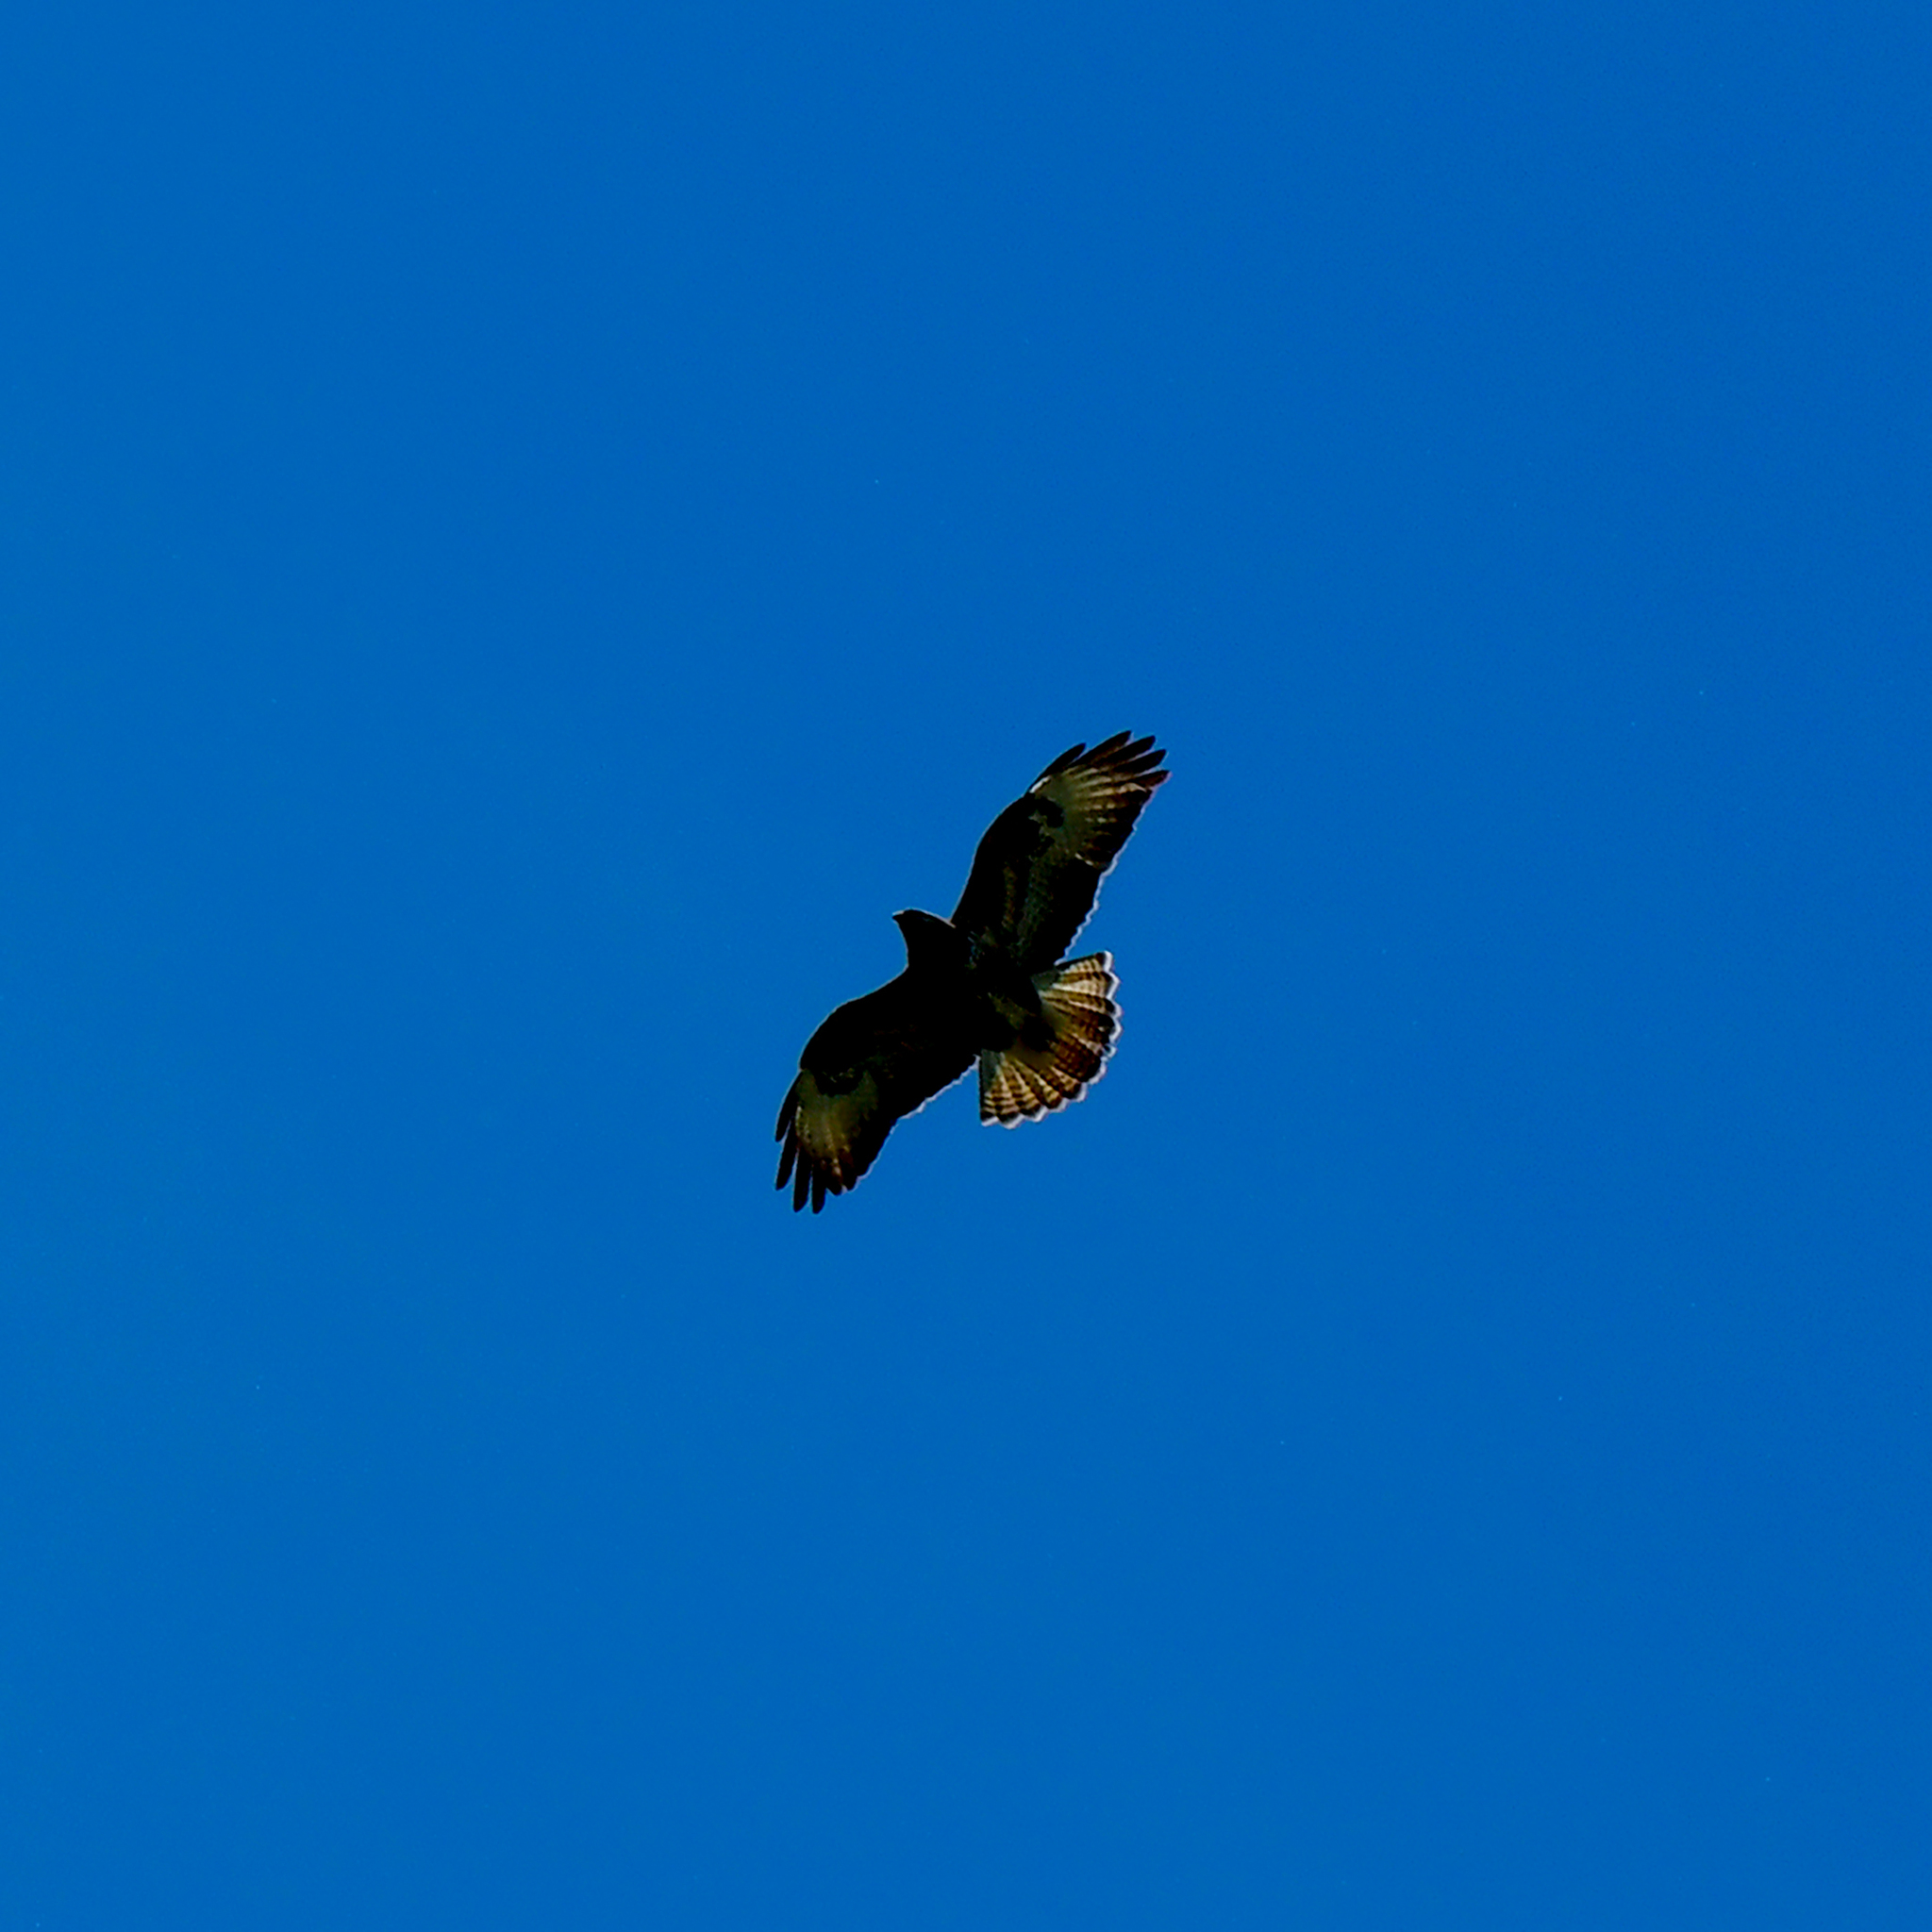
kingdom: Animalia
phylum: Chordata
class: Aves
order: Accipitriformes
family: Accipitridae
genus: Buteo
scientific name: Buteo buteo
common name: Common buzzard
